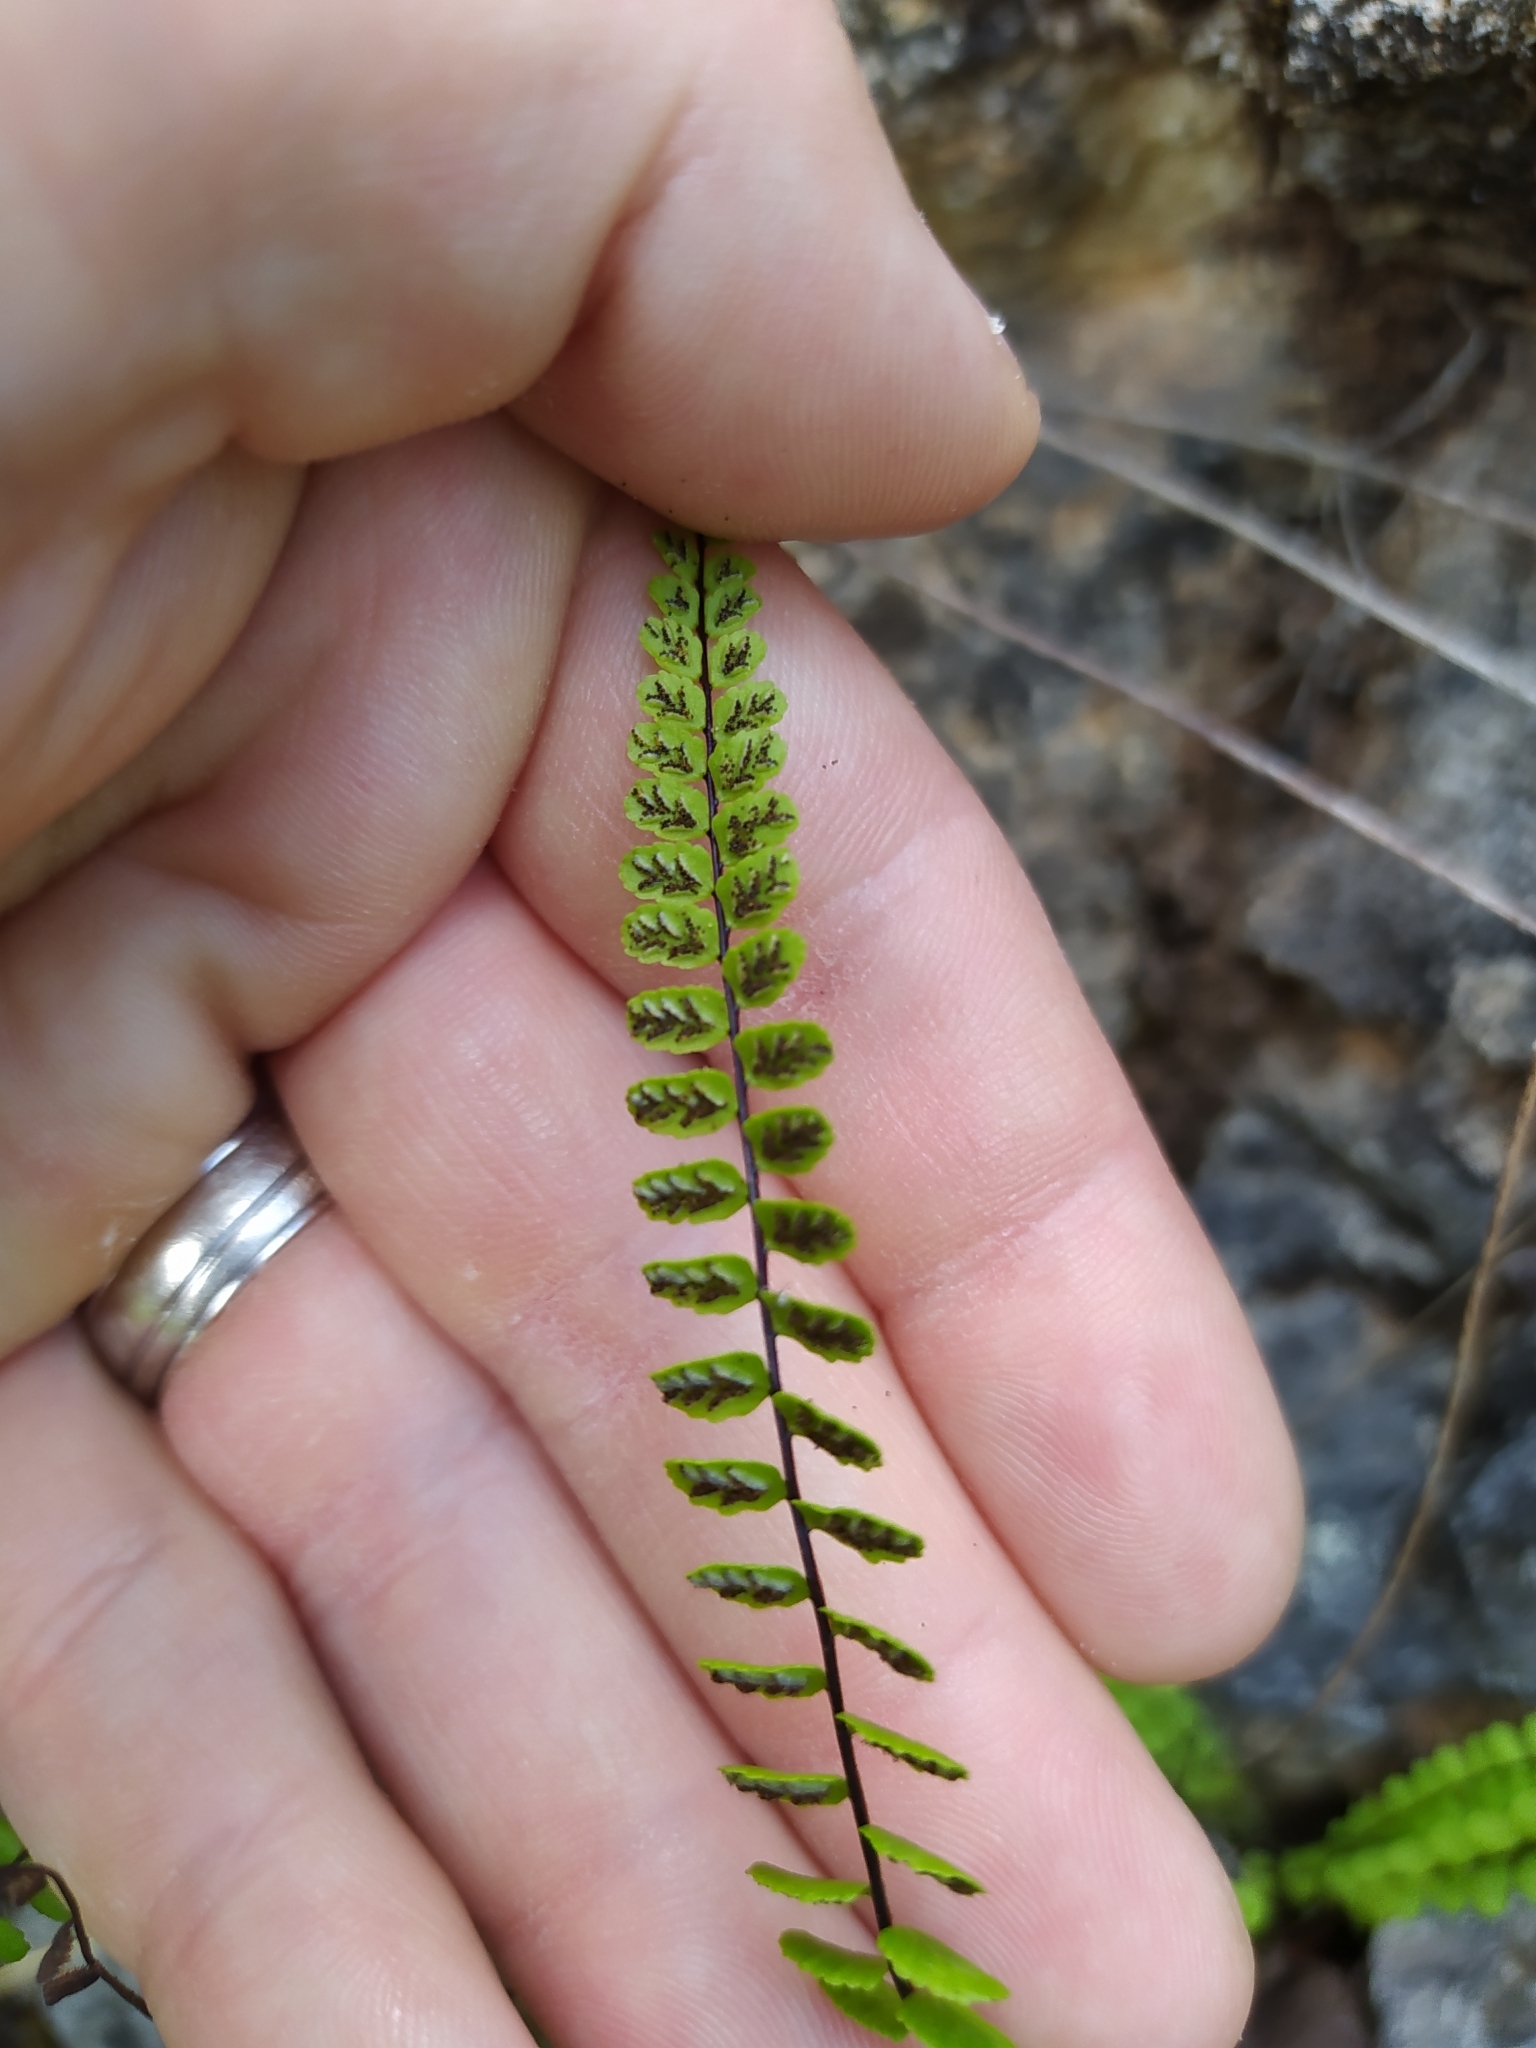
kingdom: Plantae
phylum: Tracheophyta
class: Polypodiopsida
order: Polypodiales
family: Aspleniaceae
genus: Asplenium
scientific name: Asplenium trichomanes
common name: Maidenhair spleenwort
